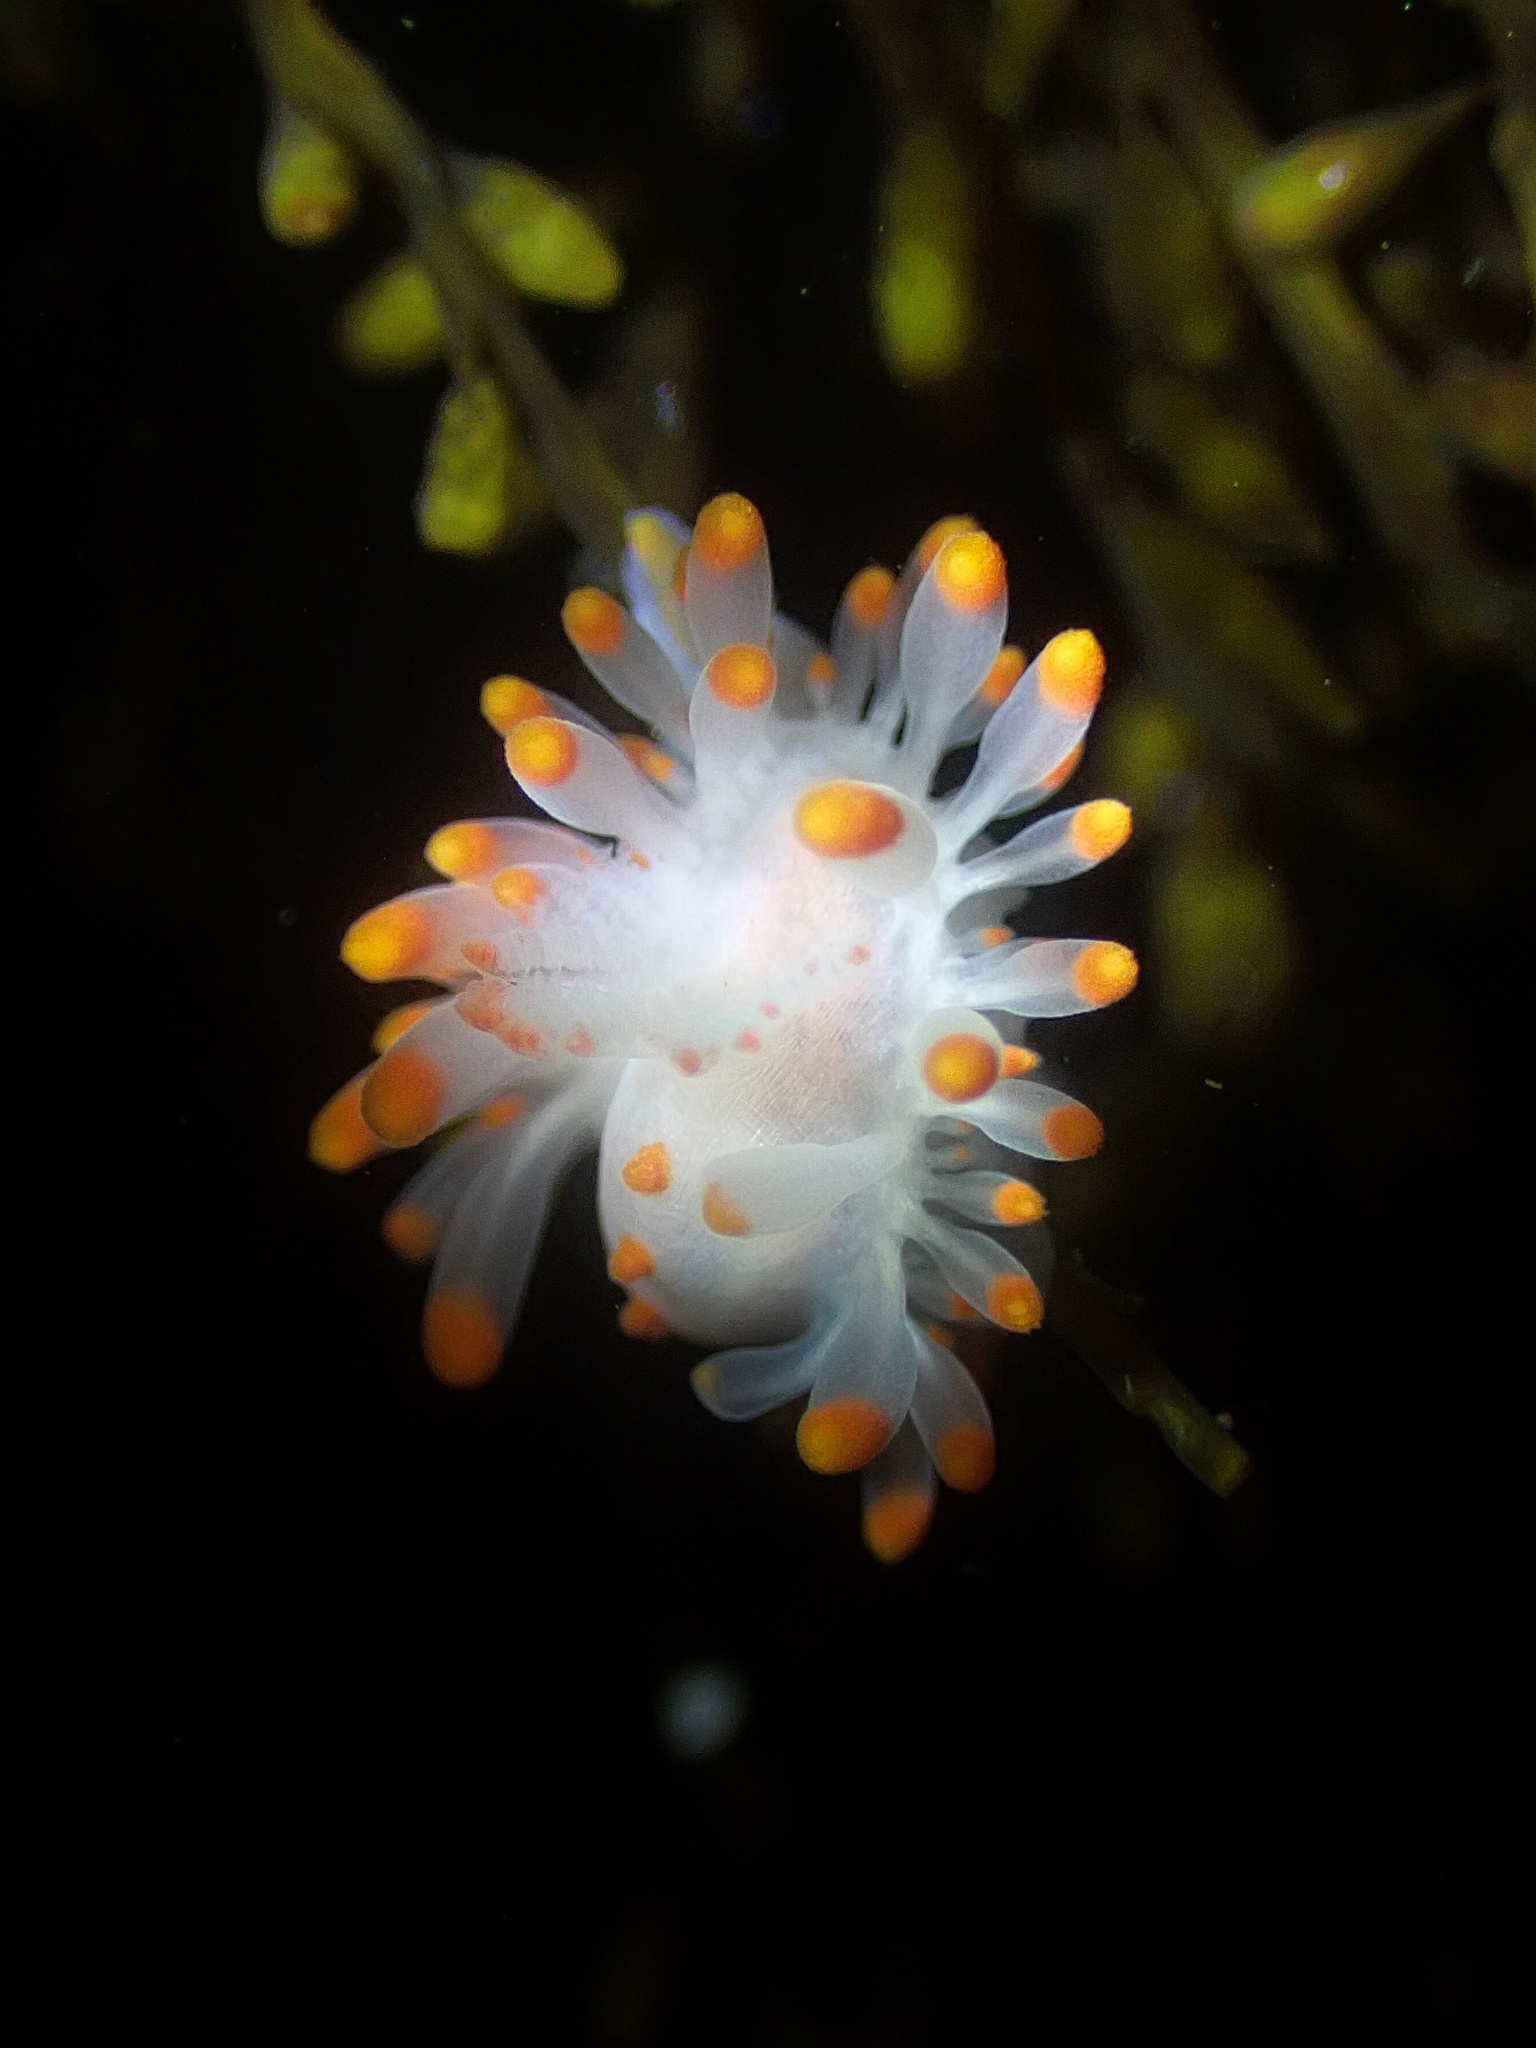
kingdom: Animalia
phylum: Mollusca
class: Gastropoda
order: Nudibranchia
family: Polyceridae
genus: Limacia
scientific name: Limacia mcdonaldi
